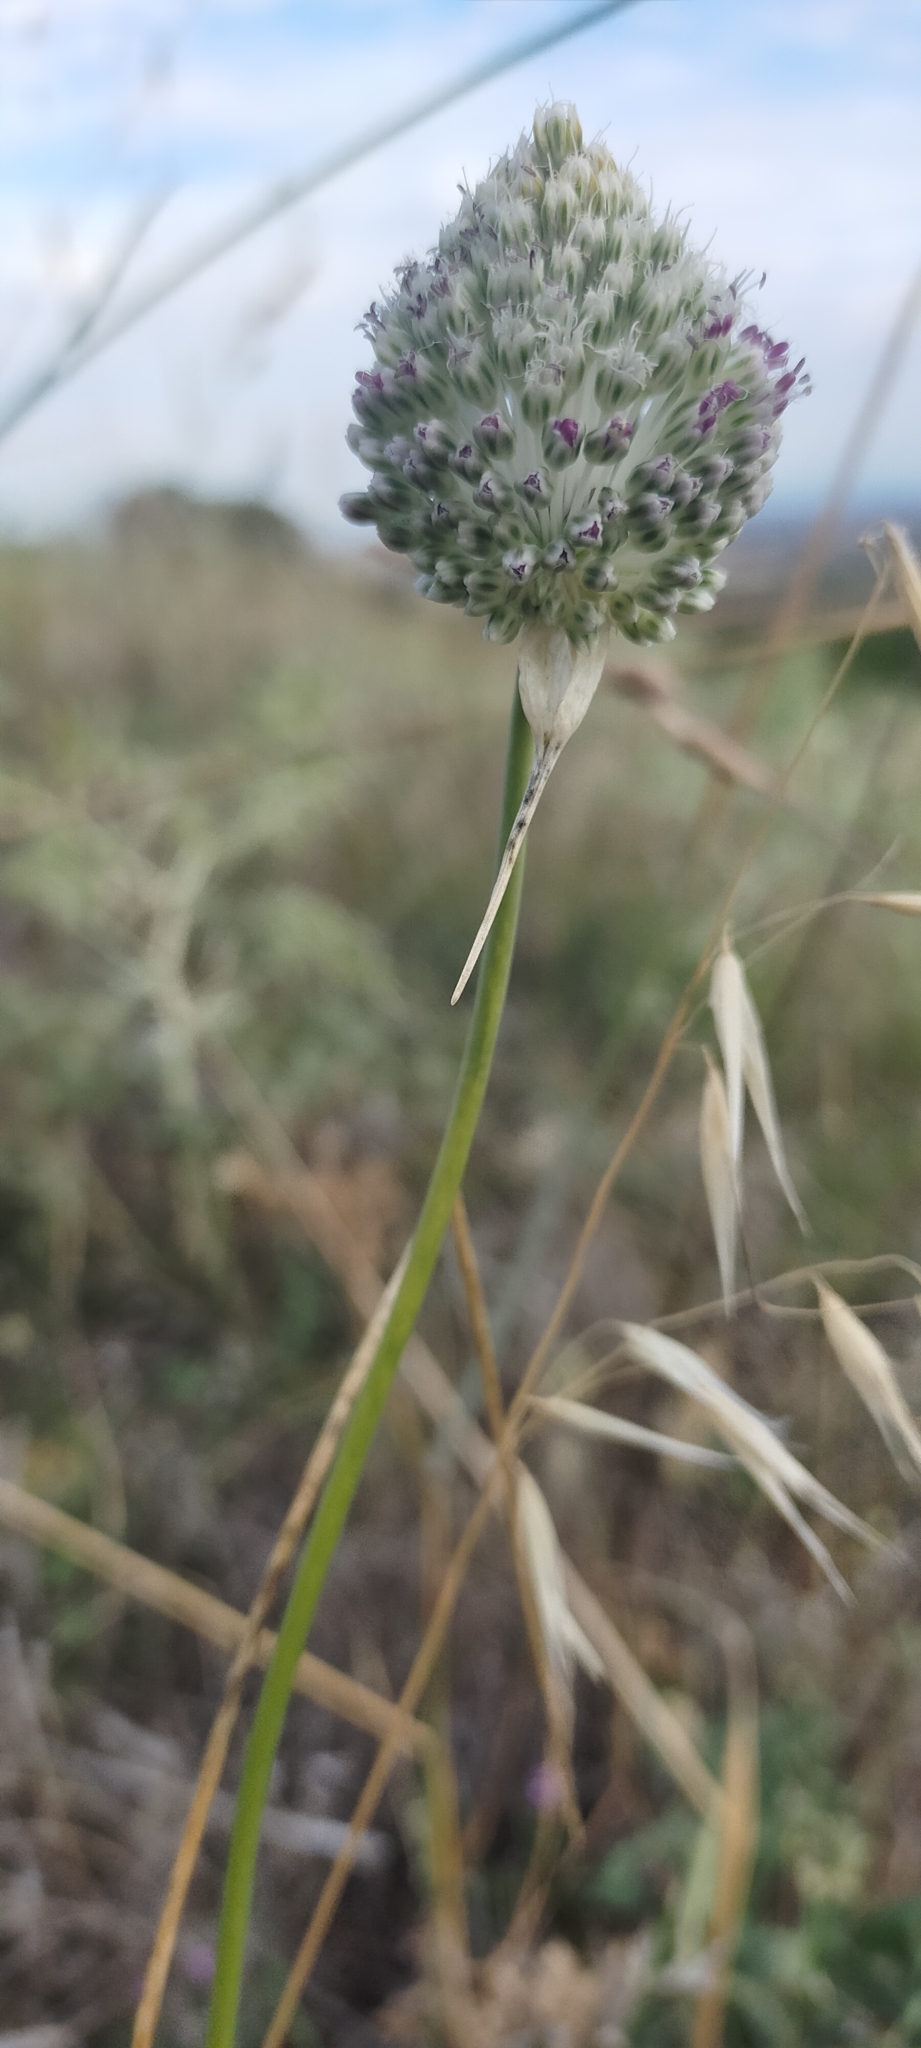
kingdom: Plantae
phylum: Tracheophyta
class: Liliopsida
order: Asparagales
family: Amaryllidaceae
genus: Allium
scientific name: Allium sardoum
